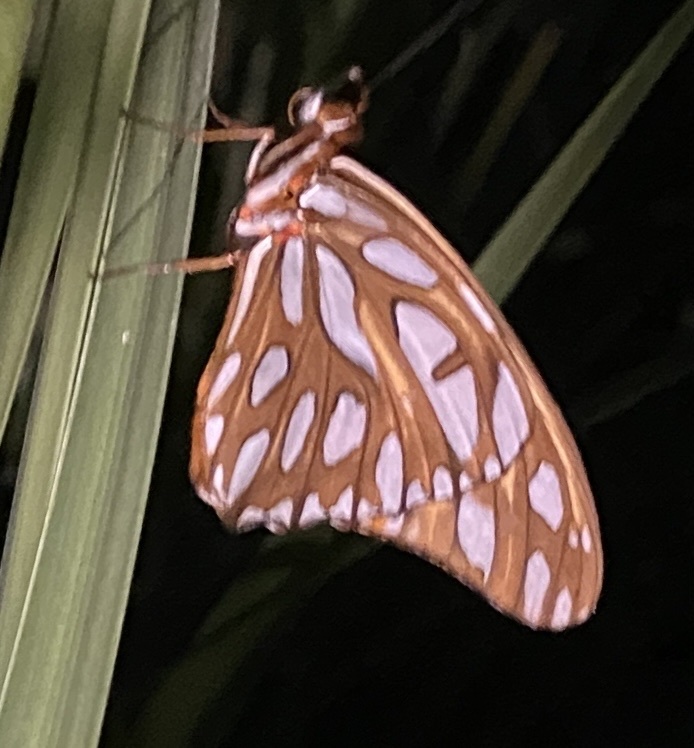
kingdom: Animalia
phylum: Arthropoda
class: Insecta
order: Lepidoptera
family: Nymphalidae
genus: Dione
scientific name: Dione vanillae
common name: Gulf fritillary
